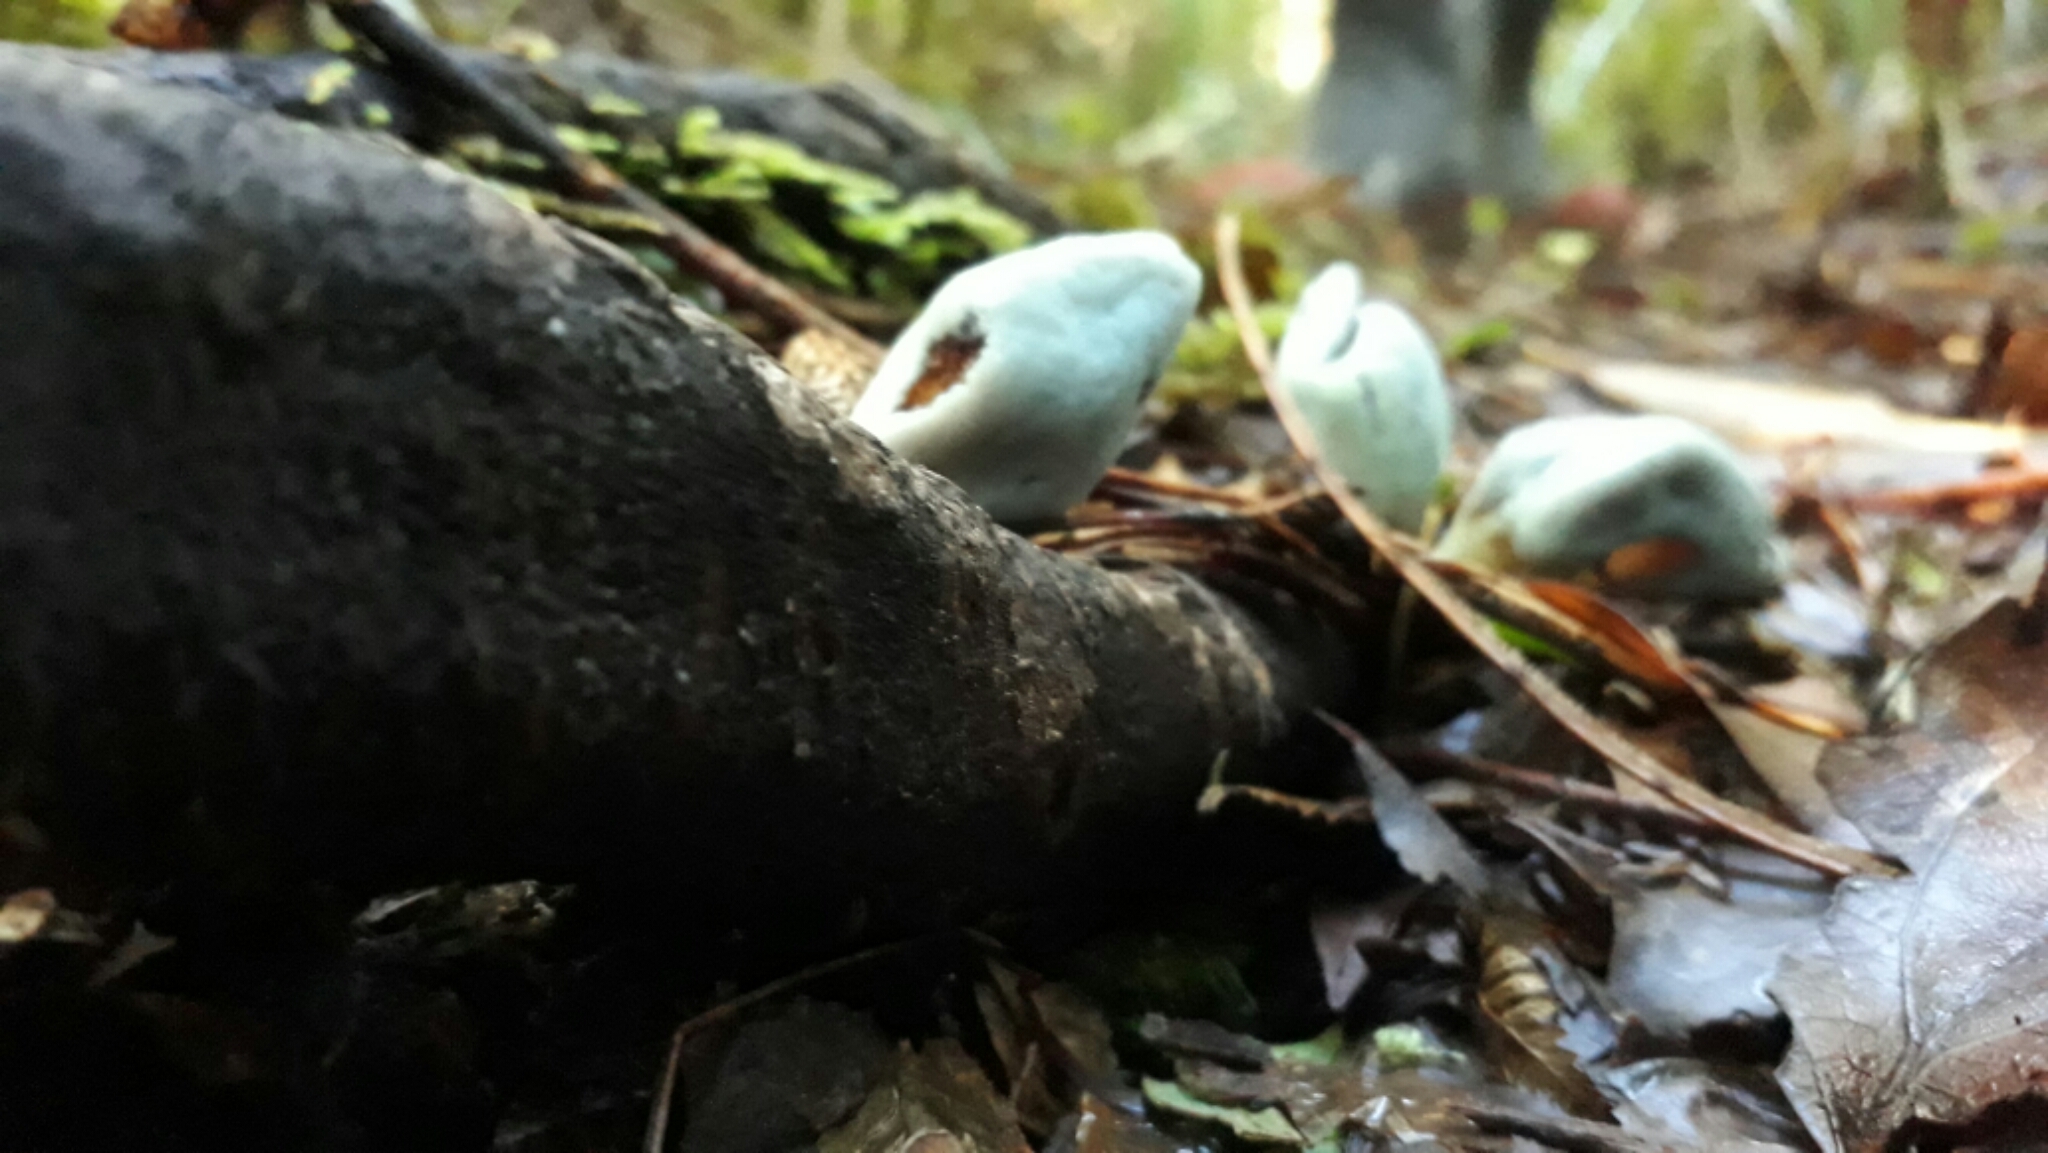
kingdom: Fungi
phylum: Basidiomycota
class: Agaricomycetes
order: Agaricales
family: Agaricaceae
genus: Clavogaster
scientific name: Clavogaster virescens
